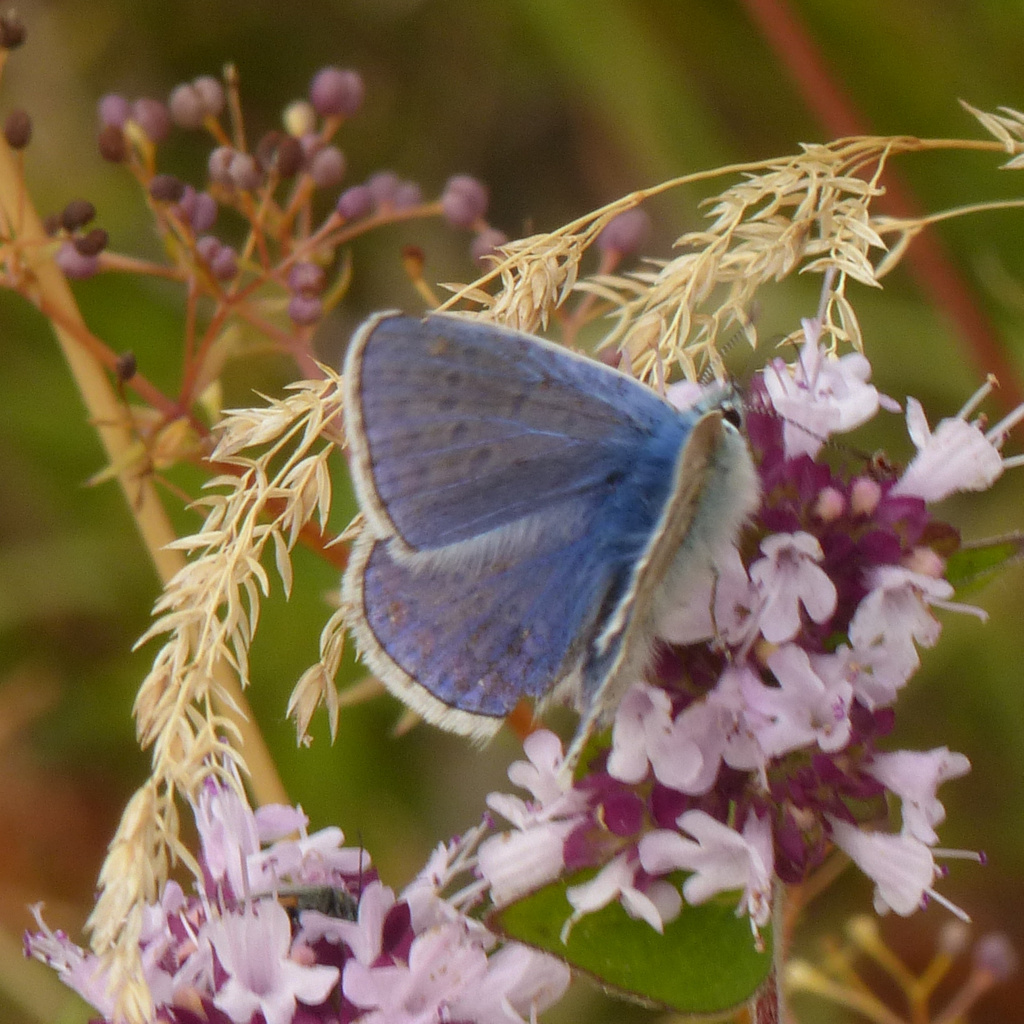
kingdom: Animalia
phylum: Arthropoda
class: Insecta
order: Lepidoptera
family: Lycaenidae
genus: Polyommatus
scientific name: Polyommatus icarus
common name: Common blue
